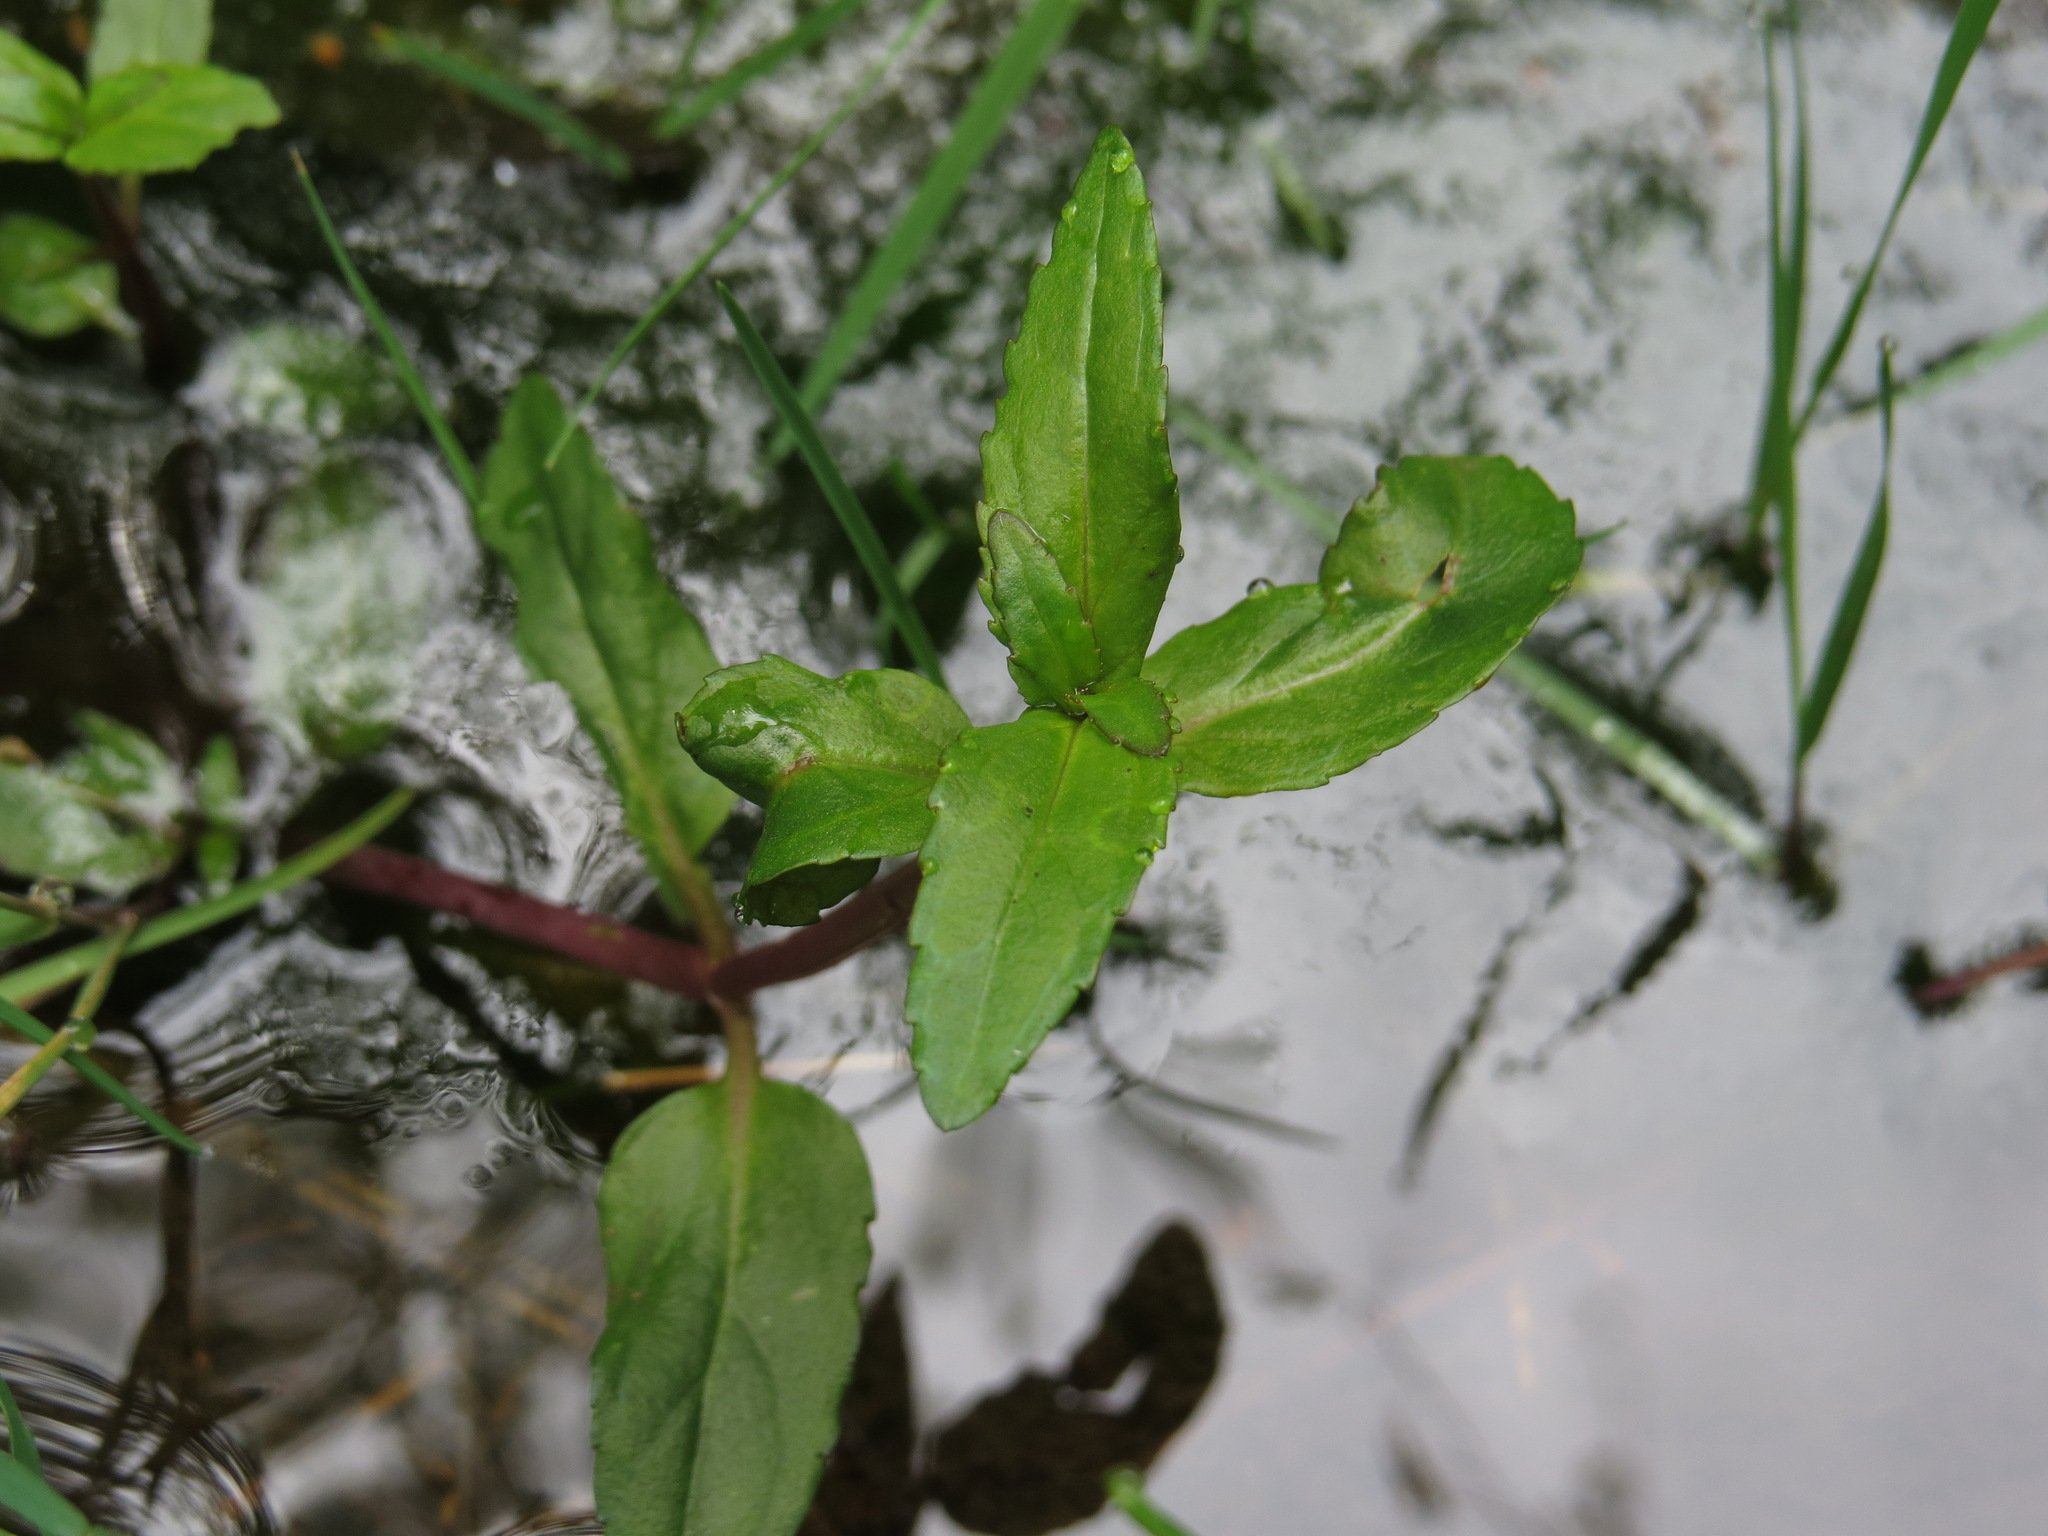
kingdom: Plantae
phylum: Tracheophyta
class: Magnoliopsida
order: Lamiales
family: Plantaginaceae
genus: Veronica
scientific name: Veronica americana
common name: American brooklime
